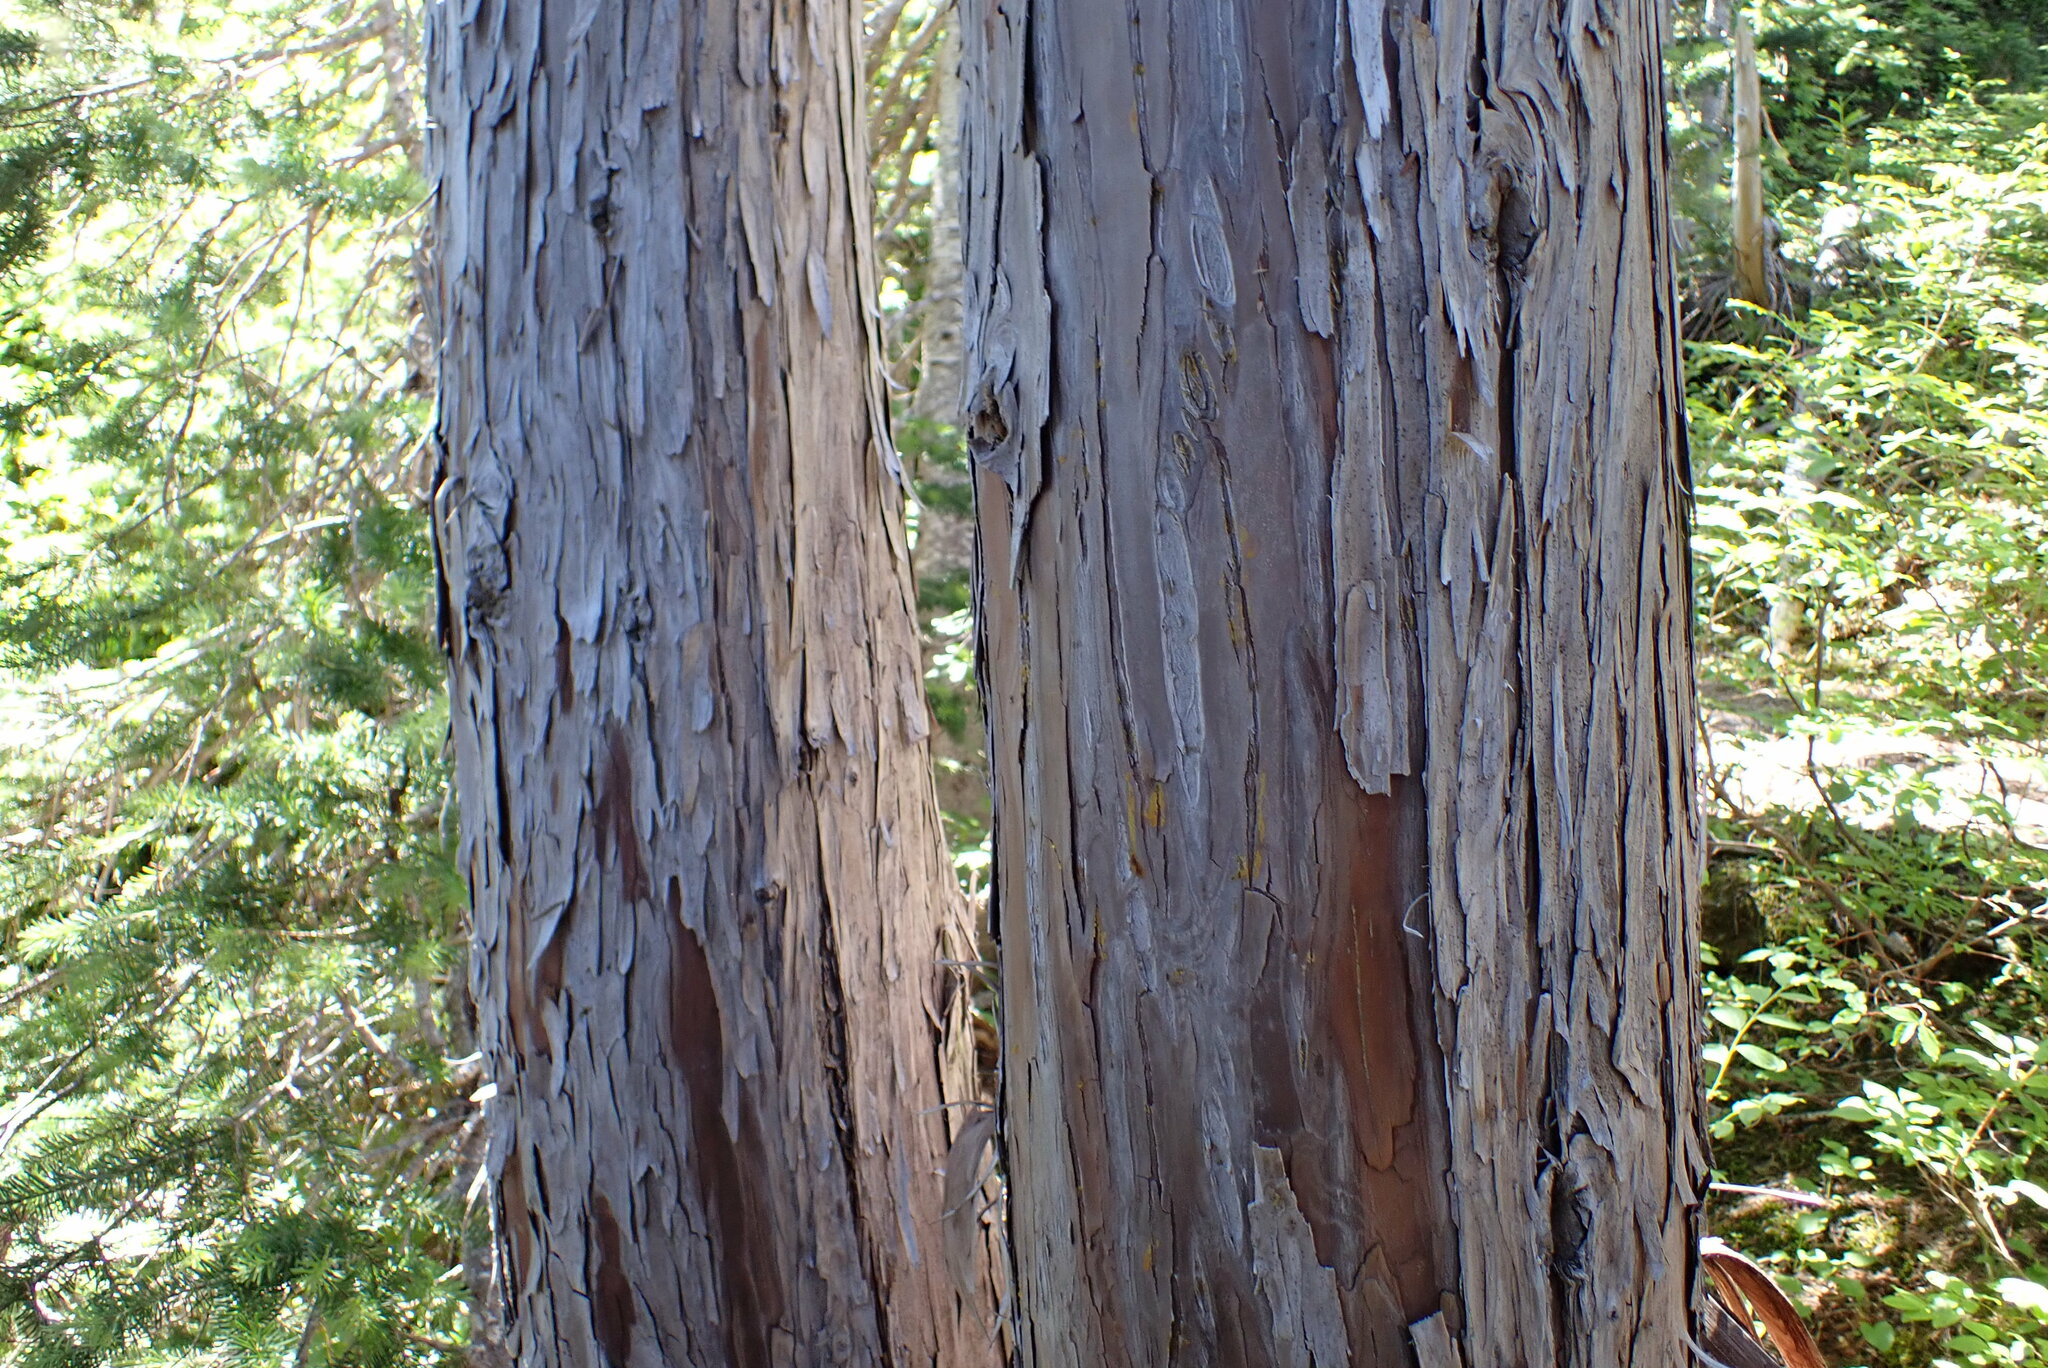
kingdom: Plantae
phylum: Tracheophyta
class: Pinopsida
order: Pinales
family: Cupressaceae
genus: Xanthocyparis
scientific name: Xanthocyparis nootkatensis
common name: Nootka cypress
